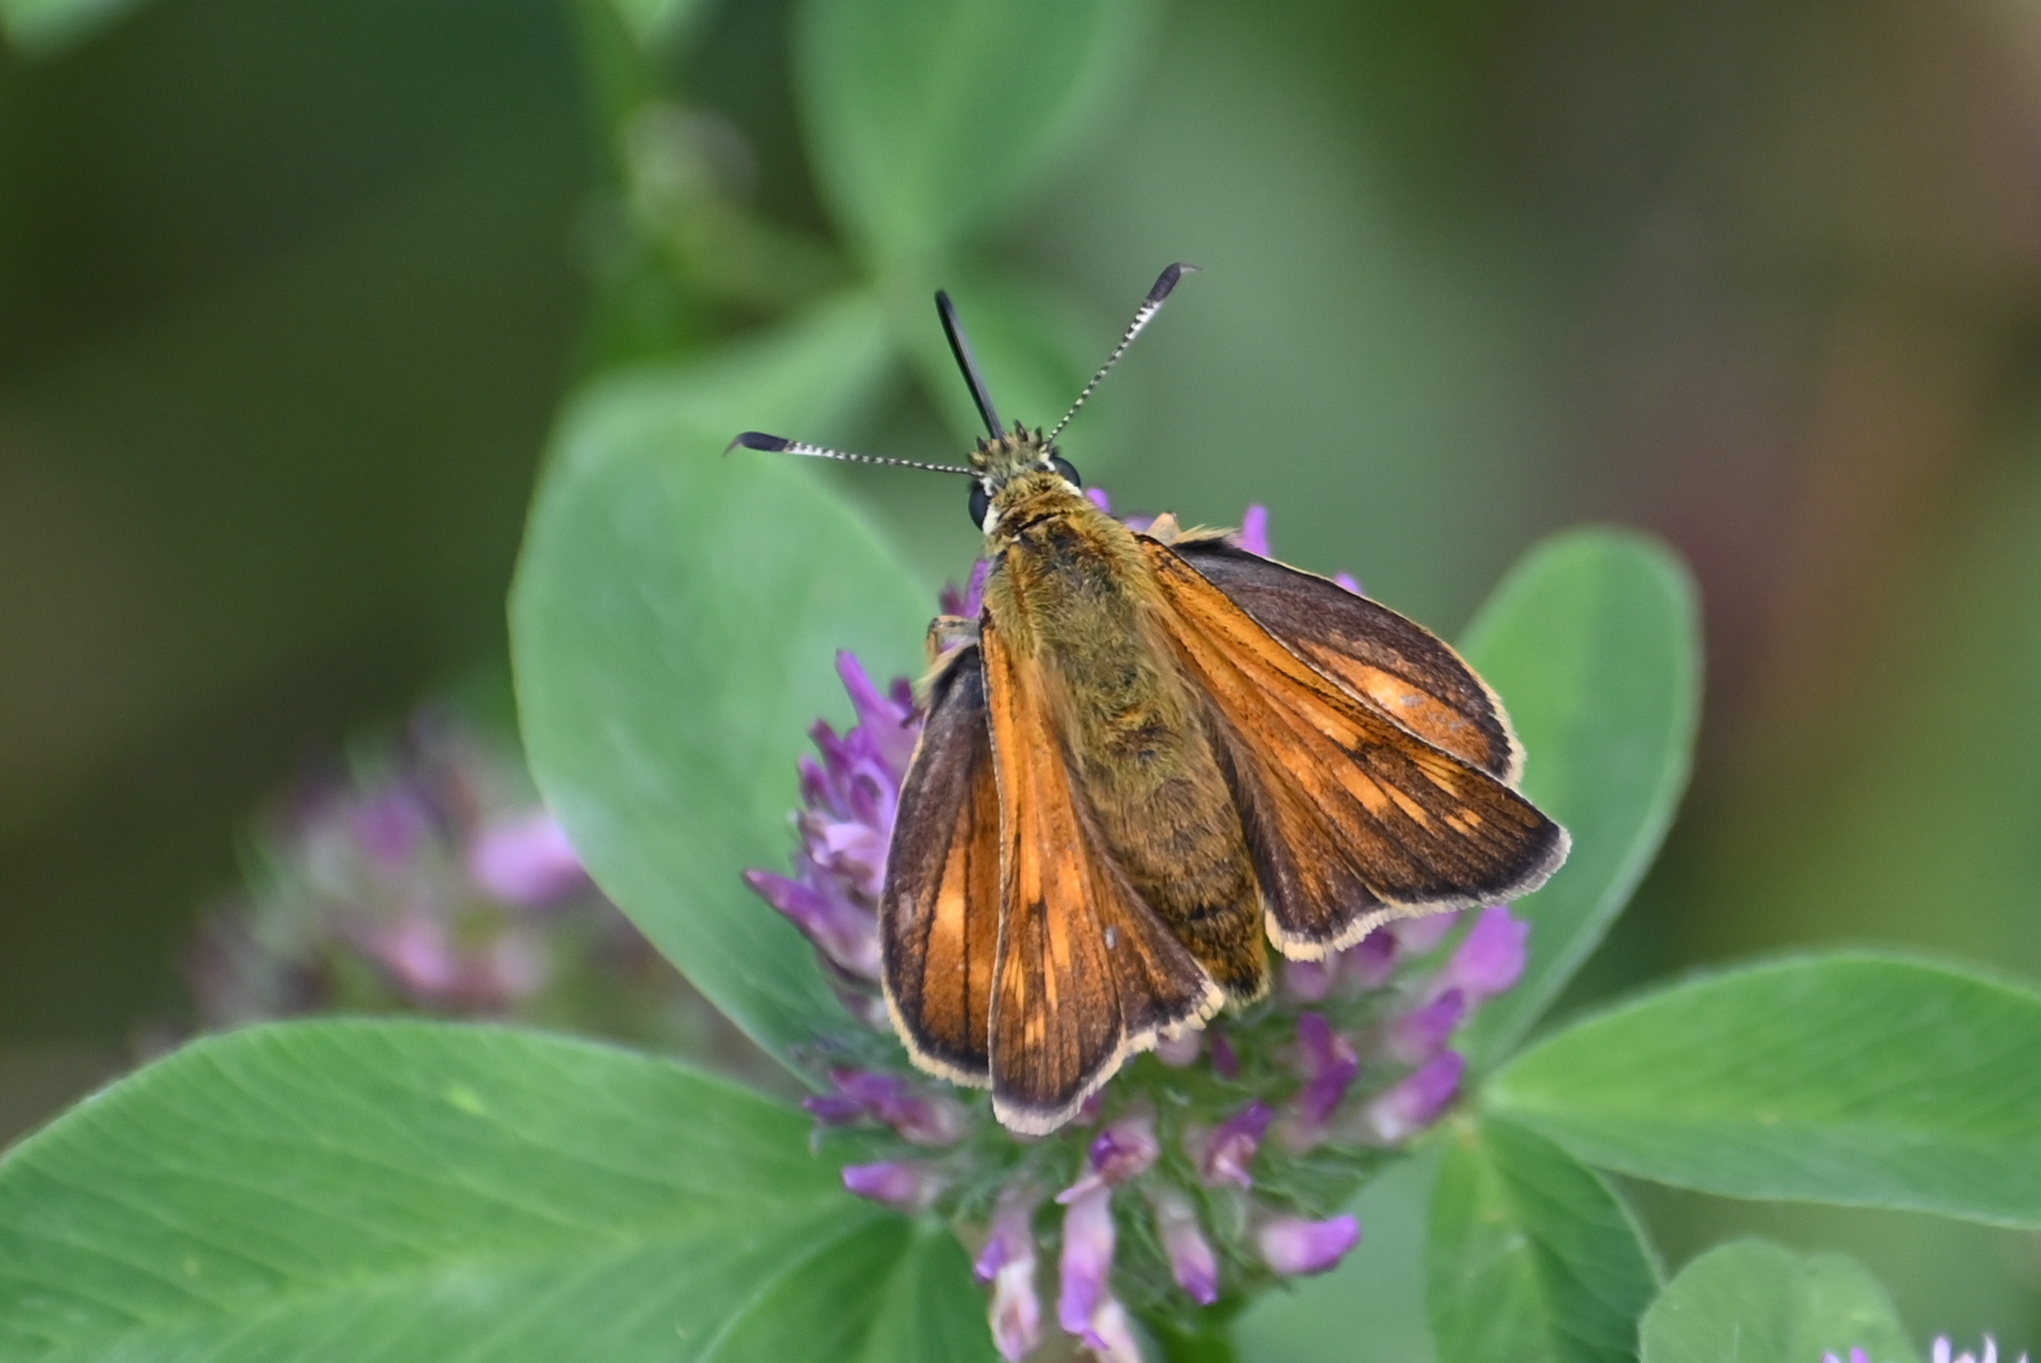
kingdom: Animalia
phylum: Arthropoda
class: Insecta
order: Lepidoptera
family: Hesperiidae
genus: Ochlodes
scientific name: Ochlodes venata
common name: Large skipper
